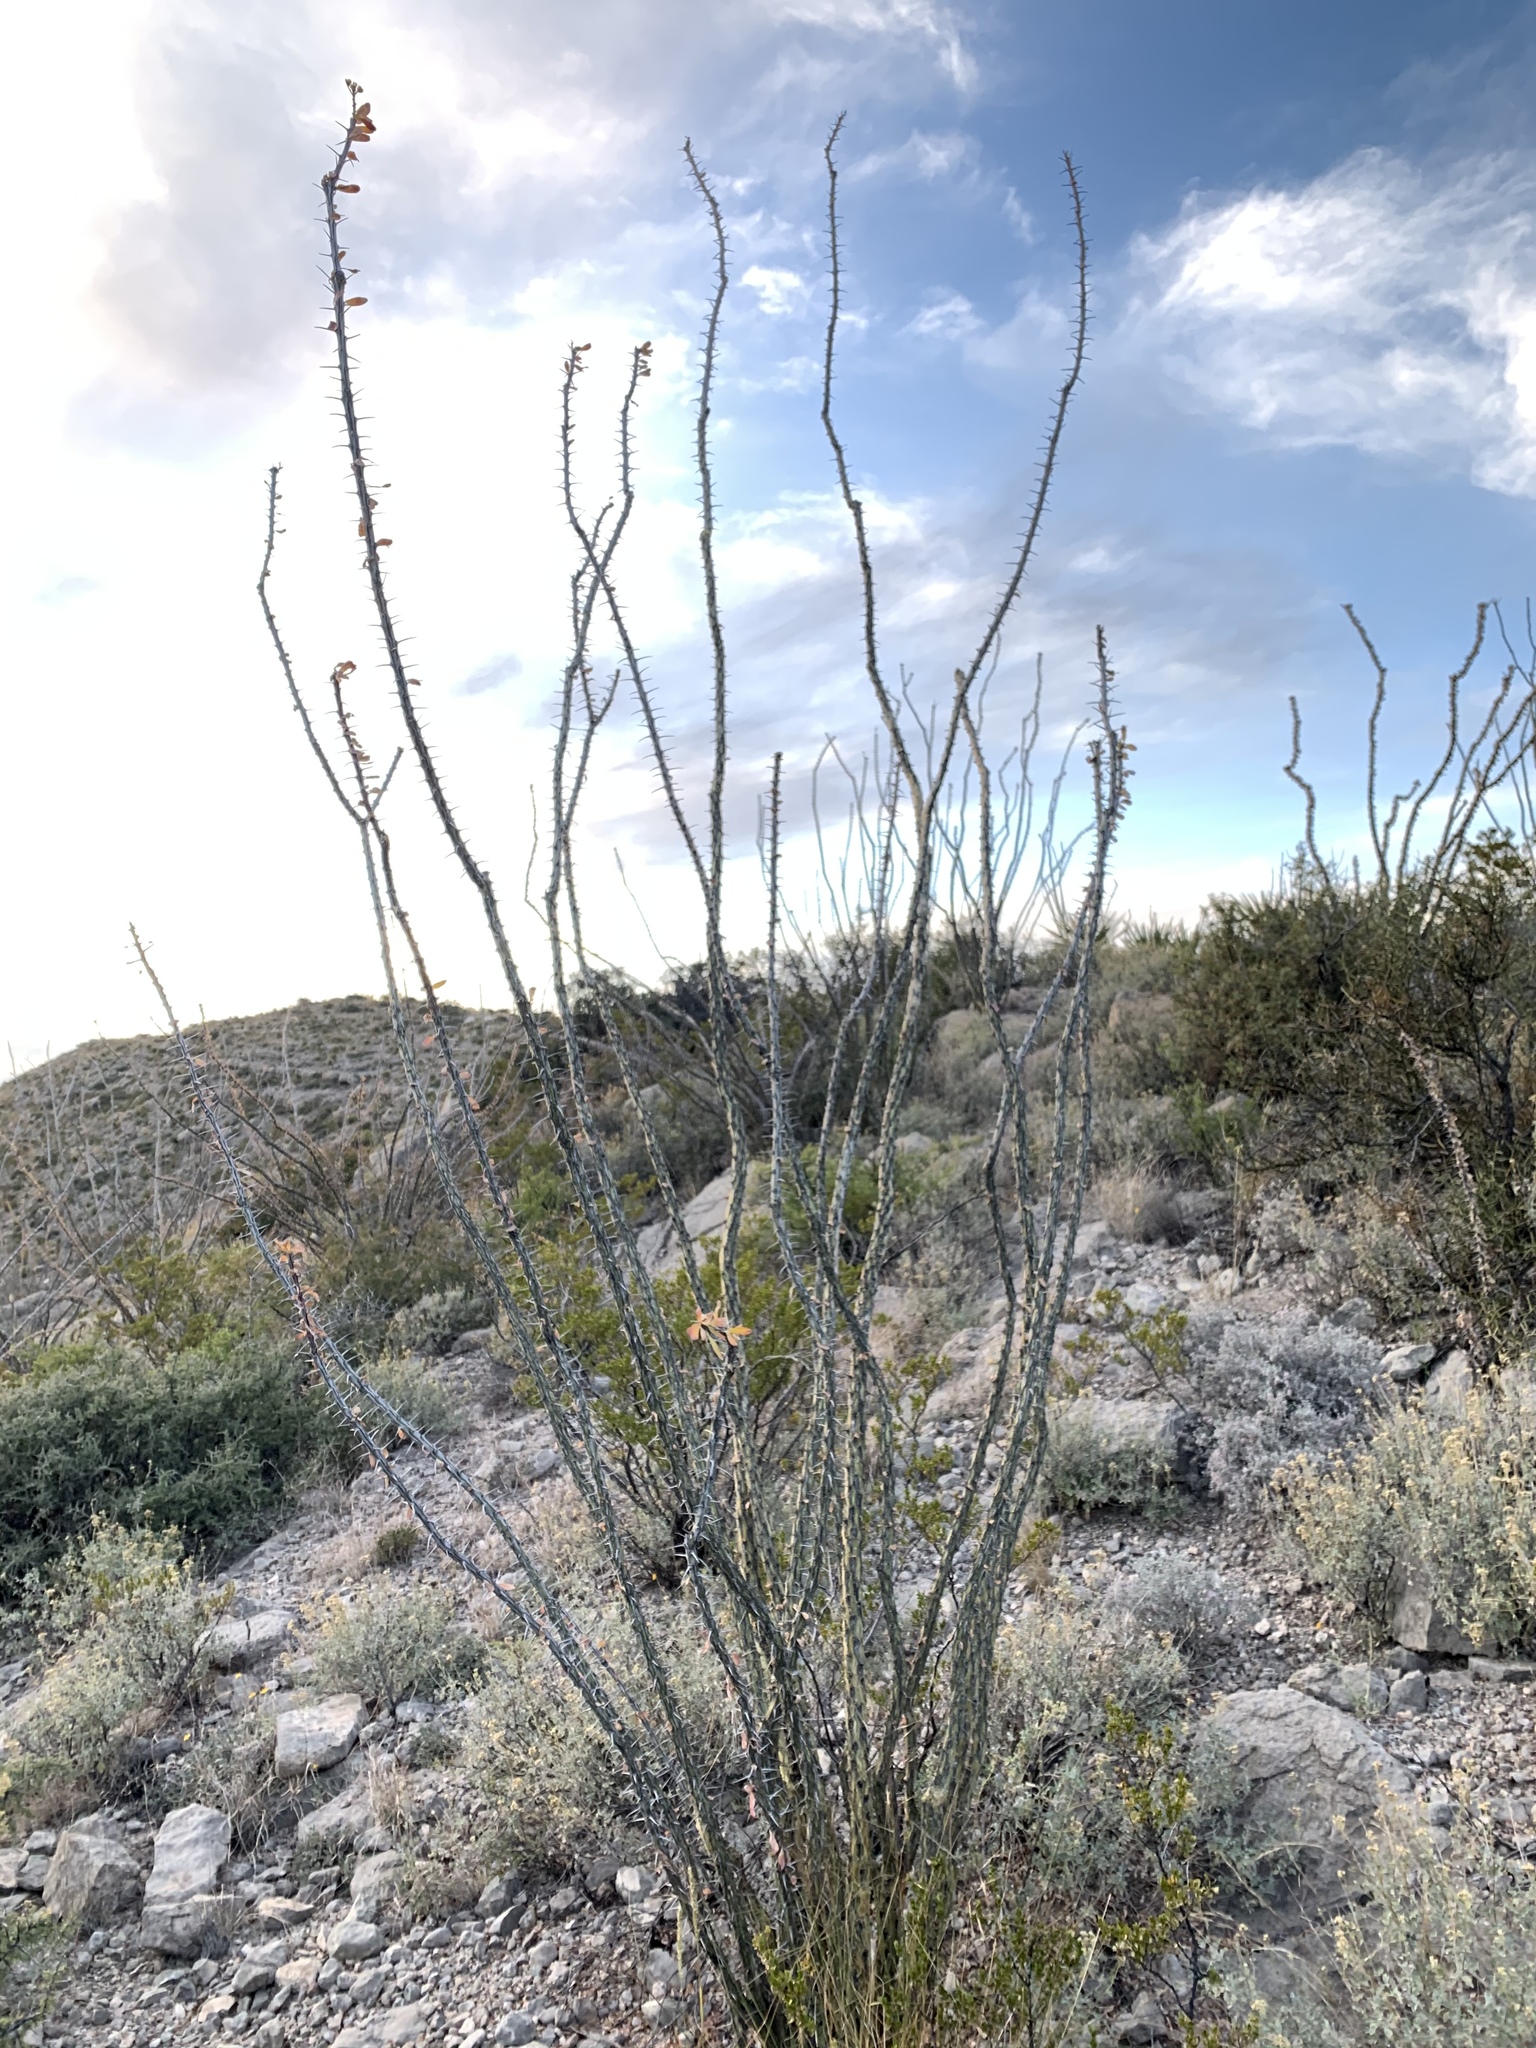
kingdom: Plantae
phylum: Tracheophyta
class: Magnoliopsida
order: Ericales
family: Fouquieriaceae
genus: Fouquieria
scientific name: Fouquieria splendens
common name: Vine-cactus
